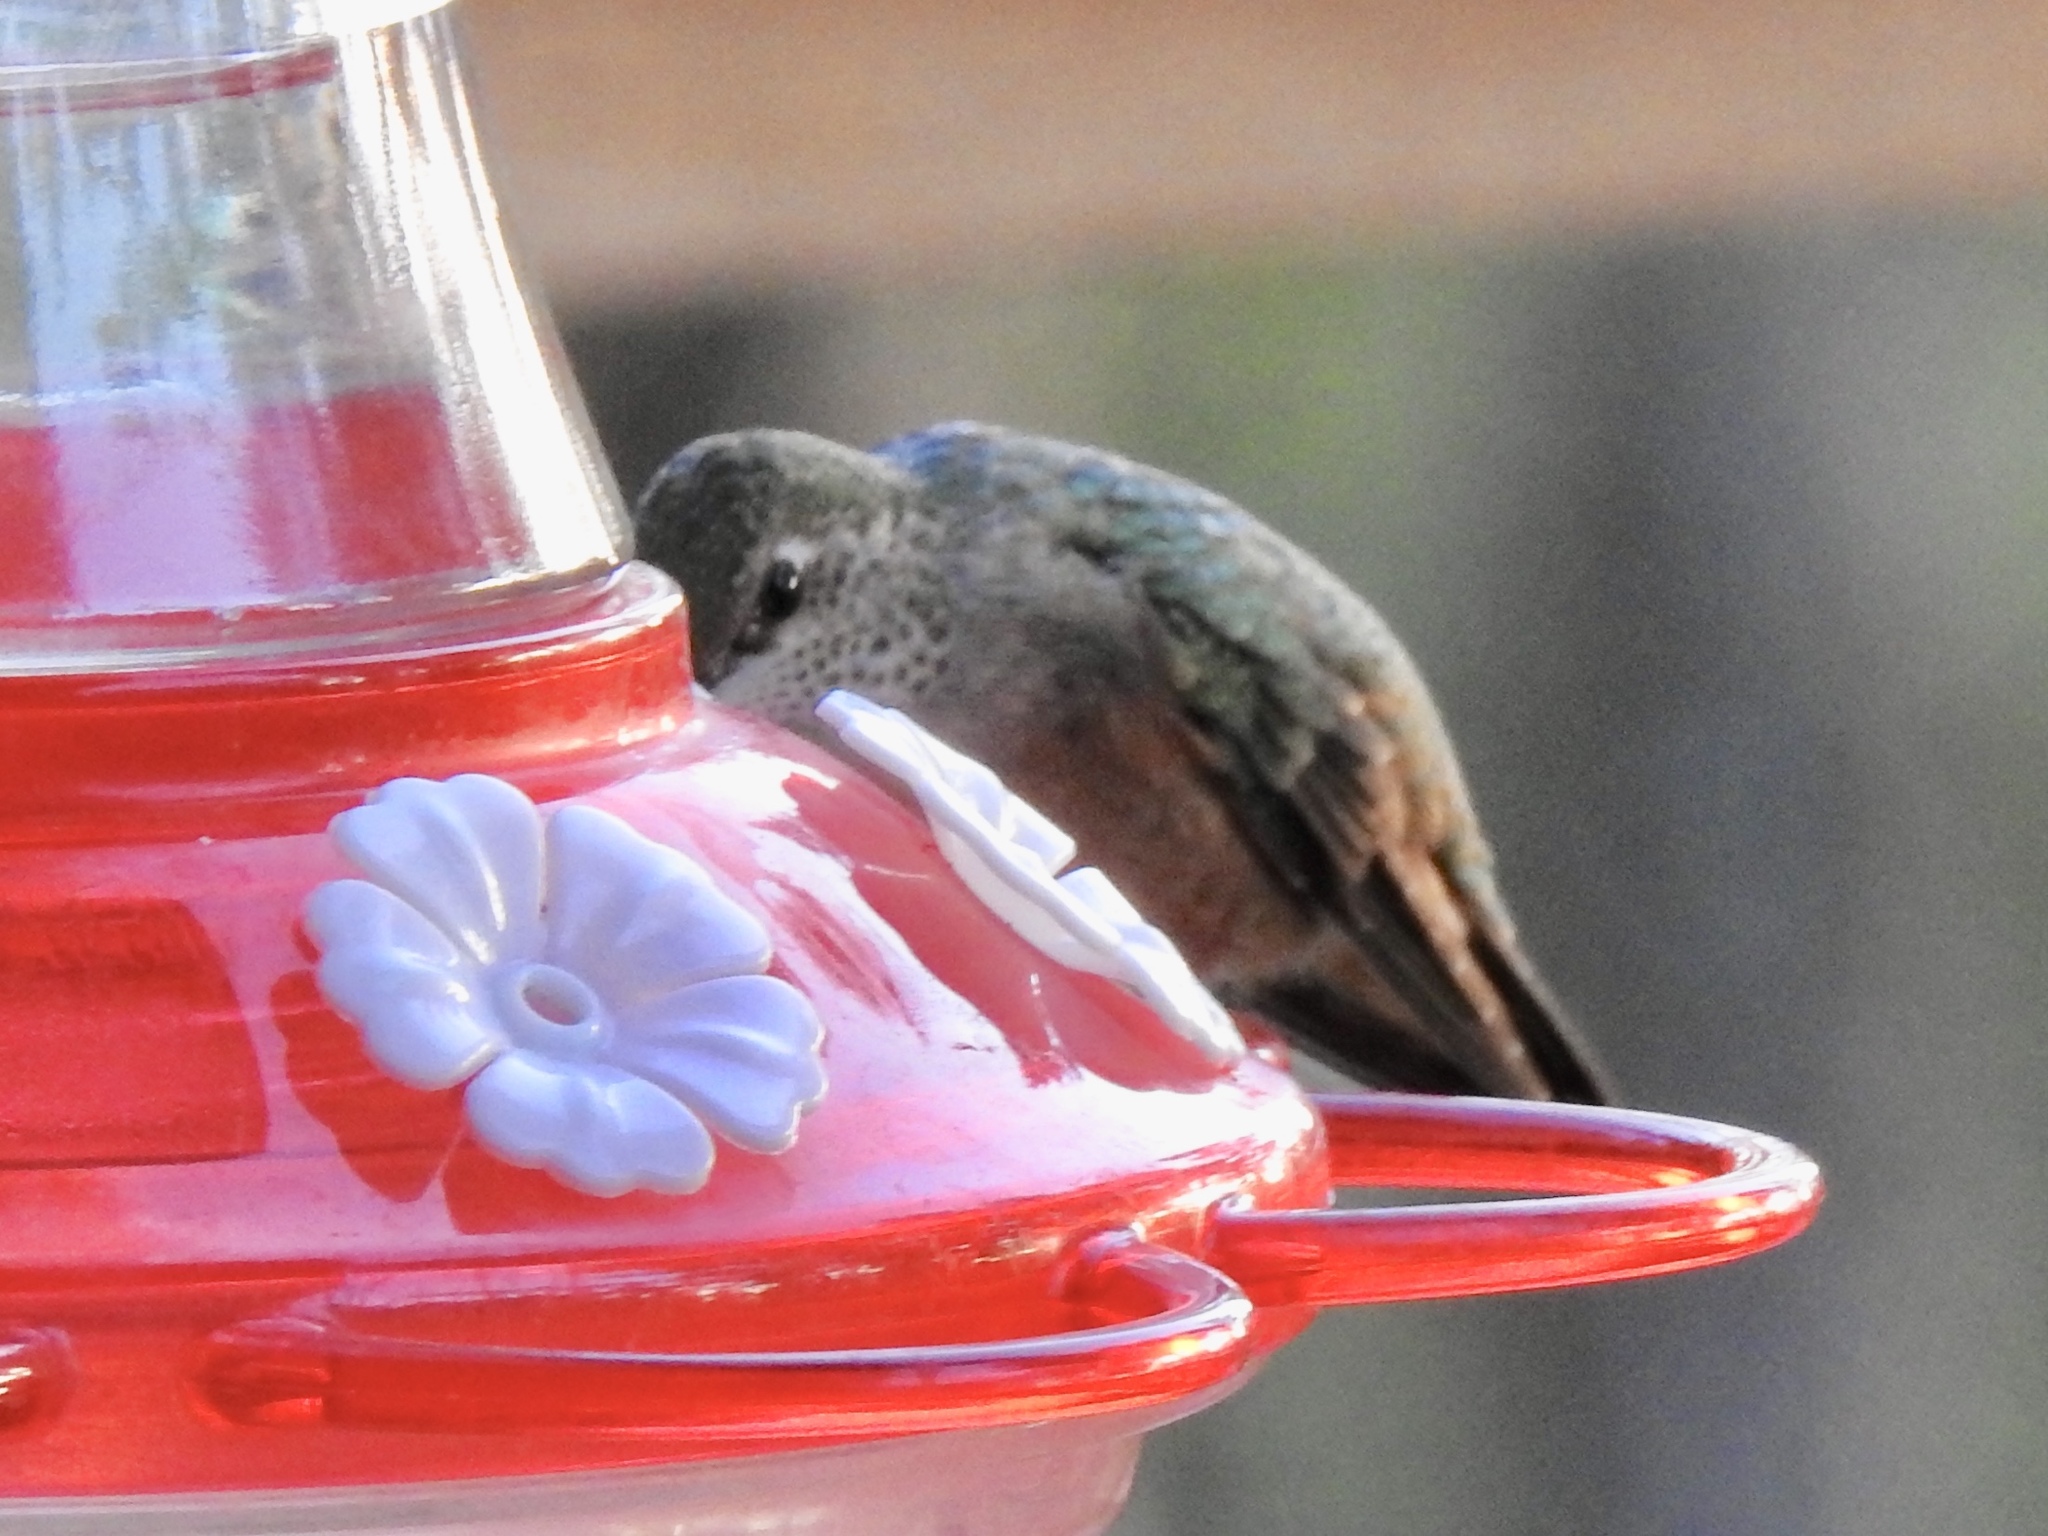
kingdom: Animalia
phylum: Chordata
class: Aves
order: Apodiformes
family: Trochilidae
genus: Selasphorus
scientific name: Selasphorus calliope
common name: Calliope hummingbird
